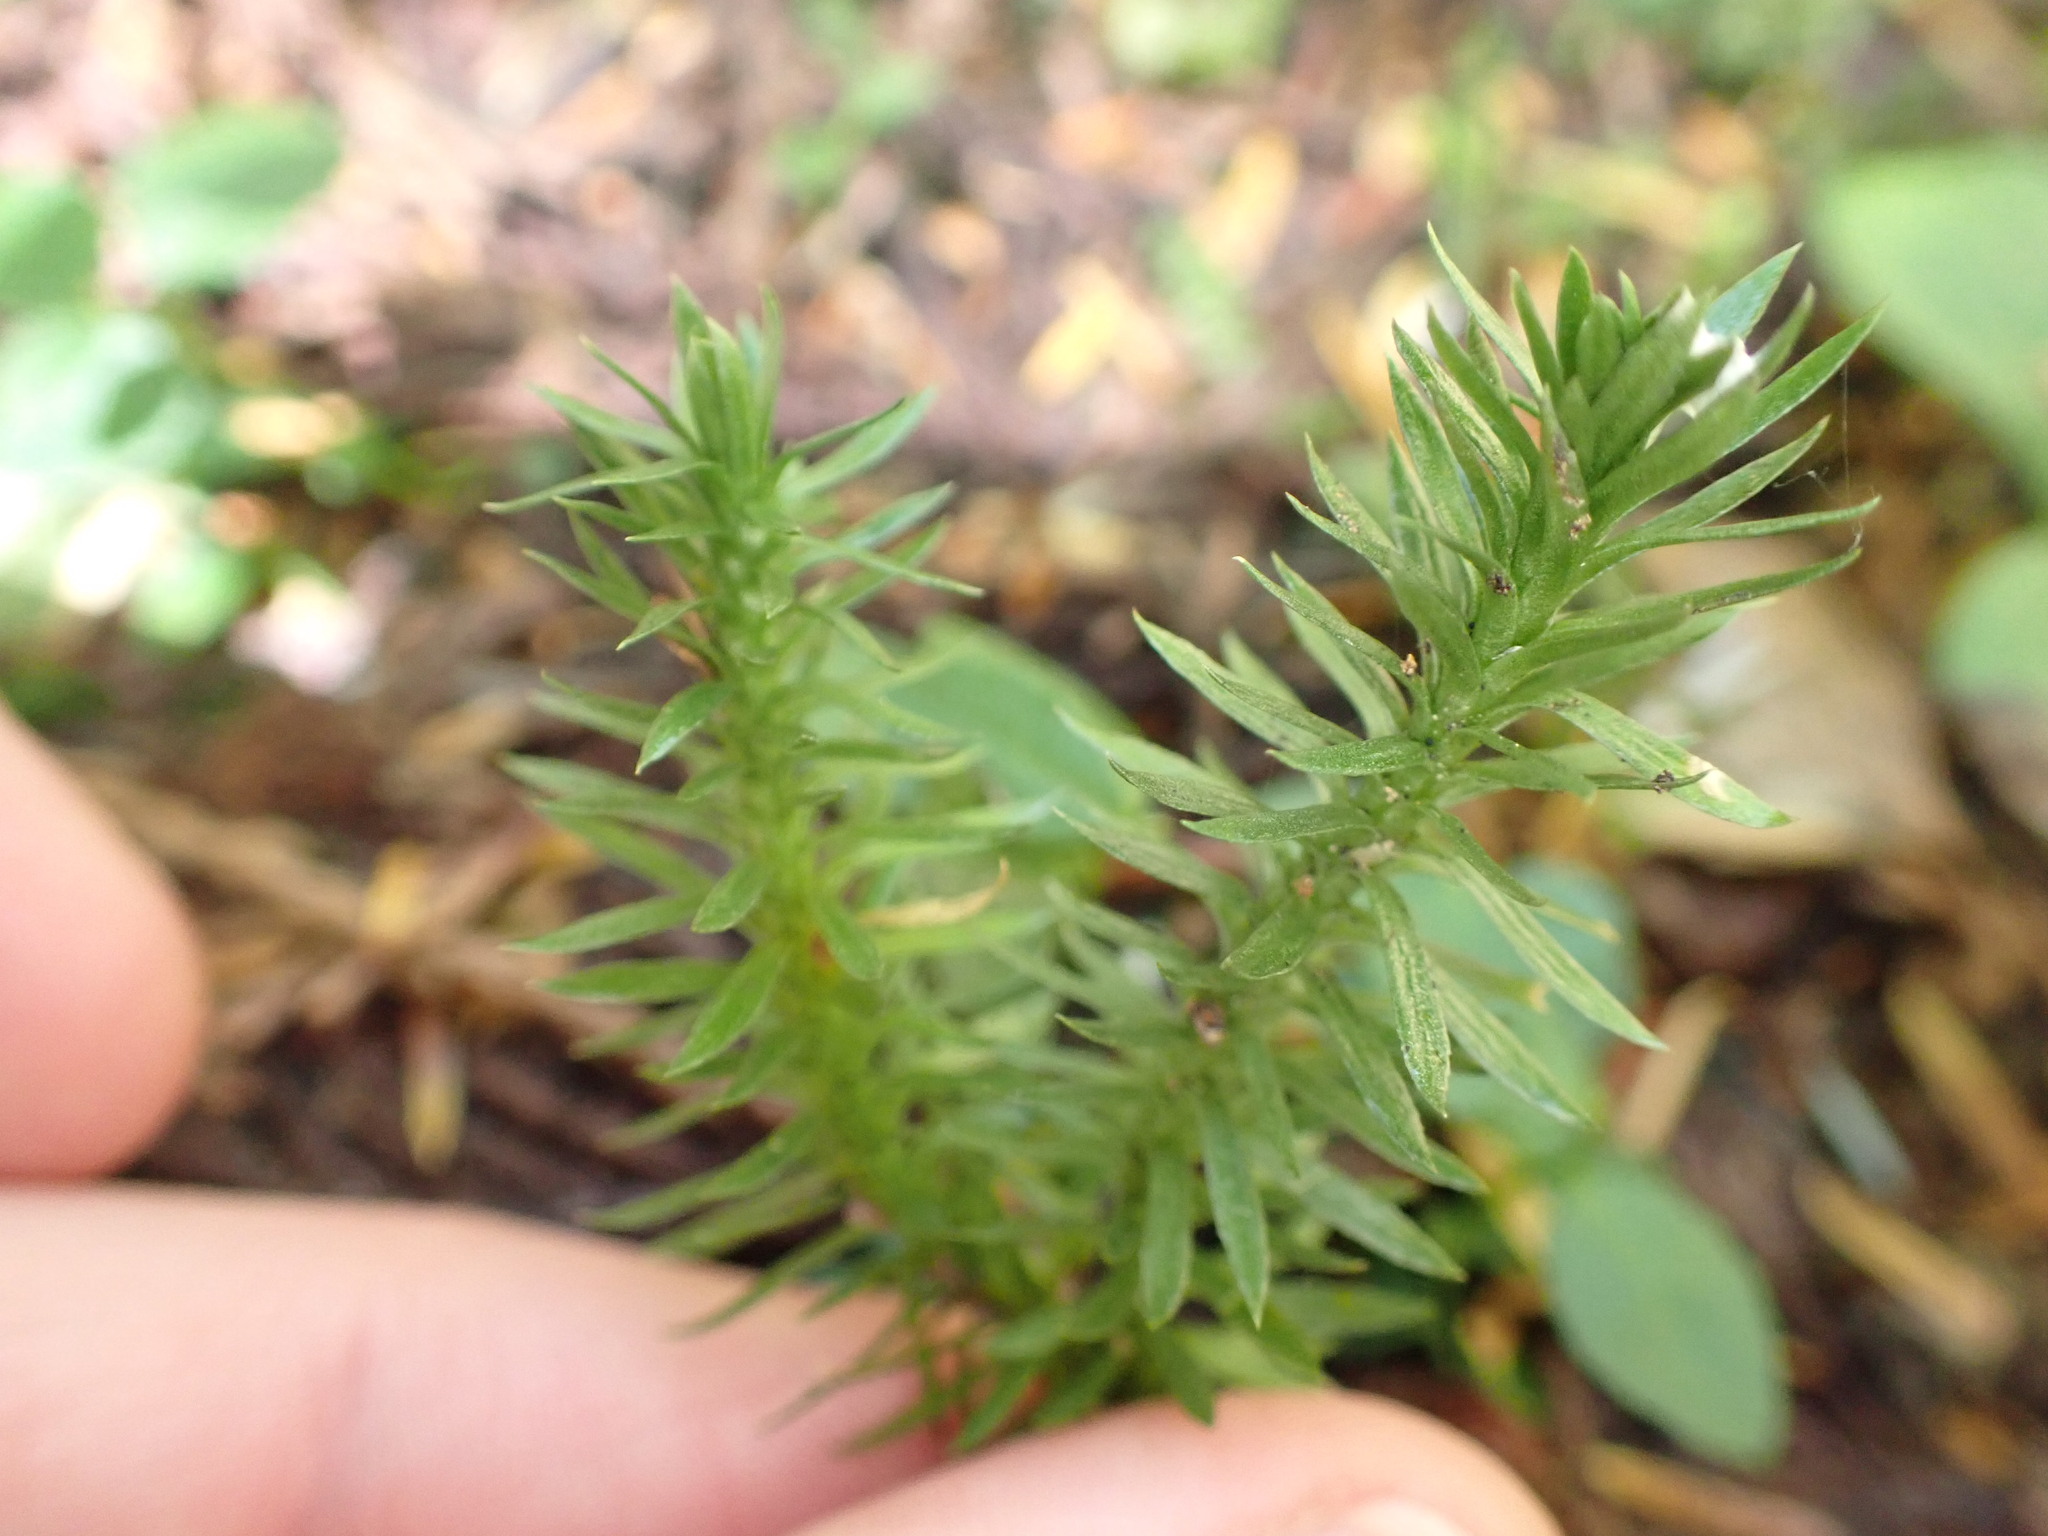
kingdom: Plantae
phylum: Tracheophyta
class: Lycopodiopsida
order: Lycopodiales
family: Lycopodiaceae
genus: Huperzia
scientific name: Huperzia occidentalis
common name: Western clubmoss
